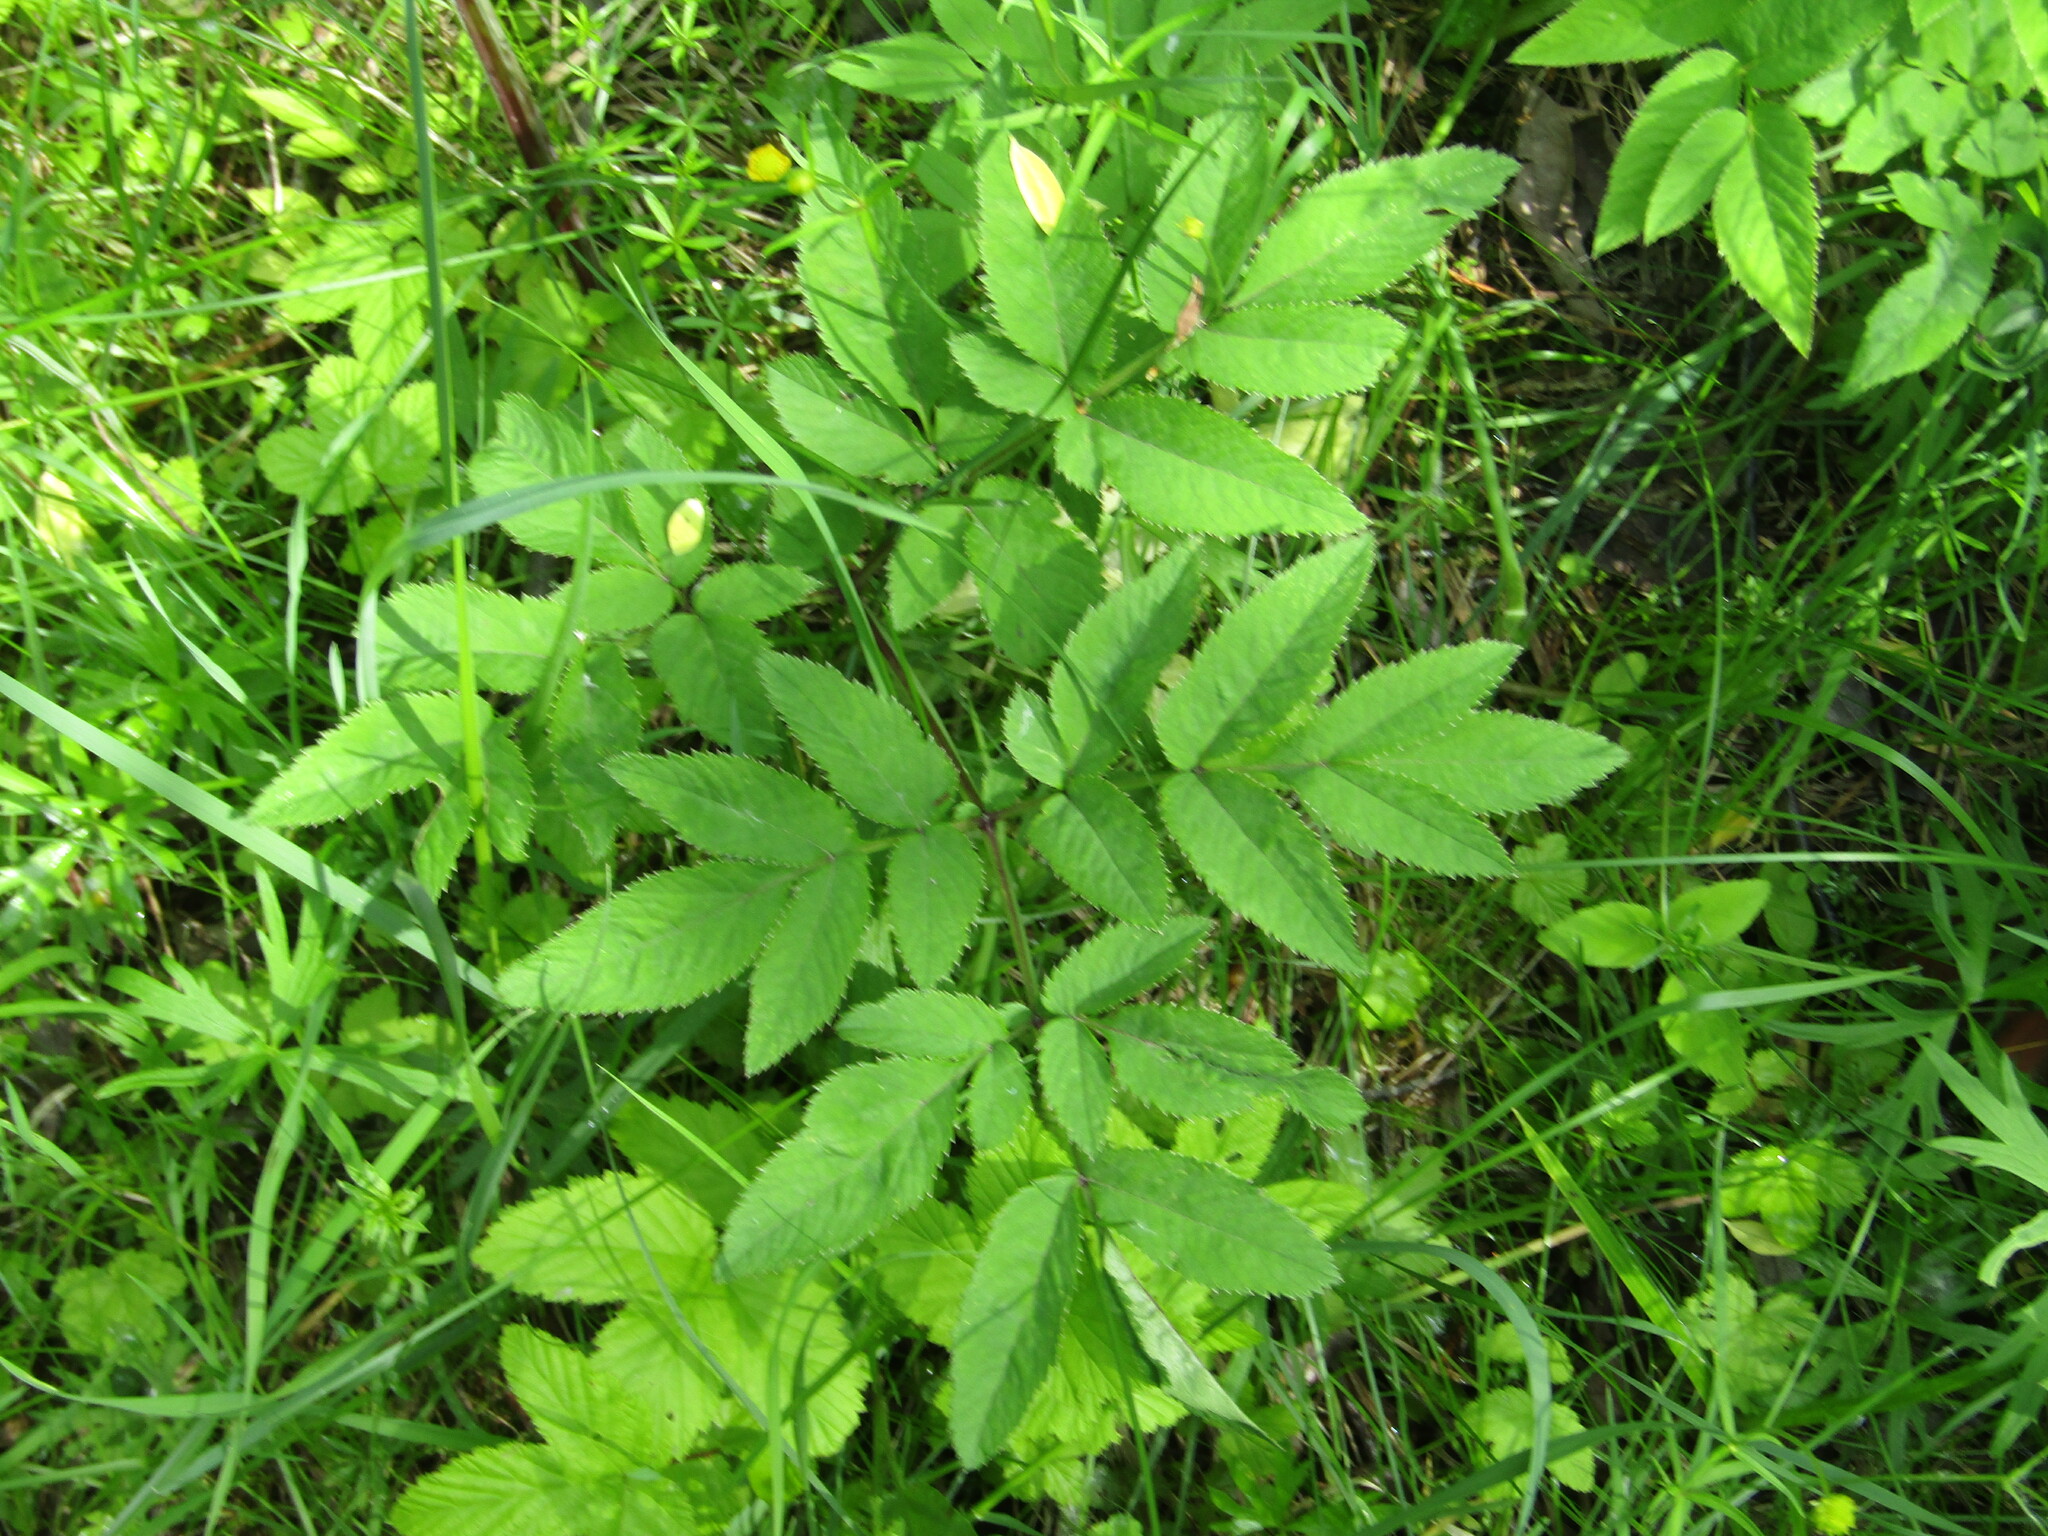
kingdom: Plantae
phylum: Tracheophyta
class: Magnoliopsida
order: Apiales
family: Apiaceae
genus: Angelica
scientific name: Angelica sylvestris
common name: Wild angelica
